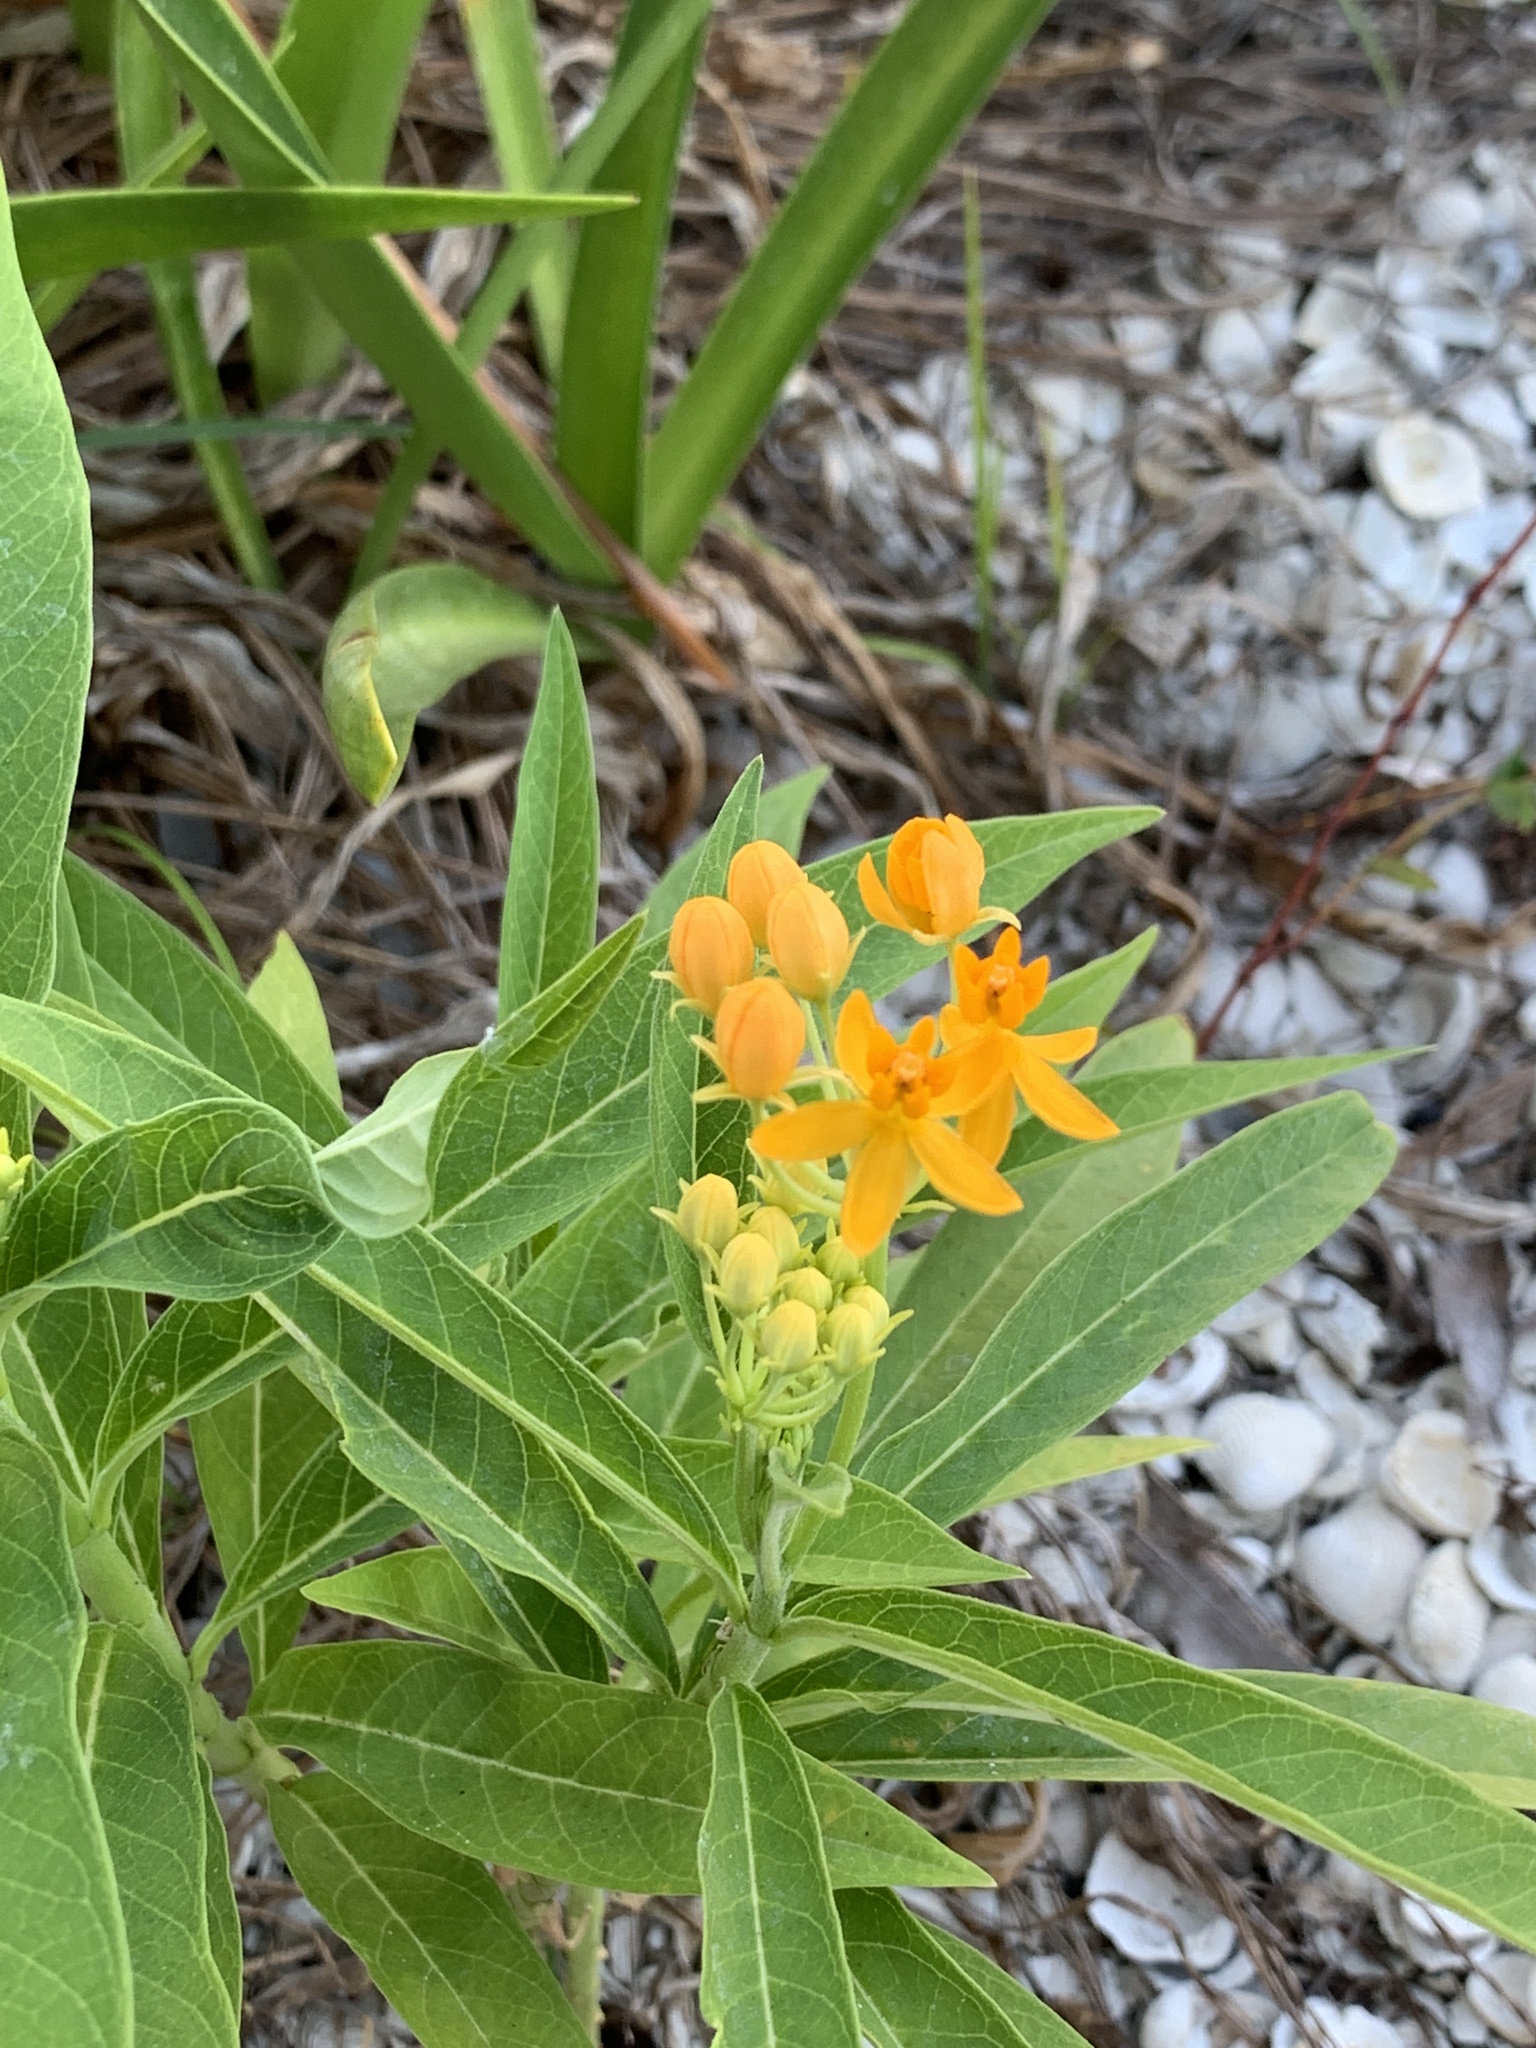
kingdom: Plantae
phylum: Tracheophyta
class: Magnoliopsida
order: Gentianales
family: Apocynaceae
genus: Asclepias
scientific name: Asclepias curassavica
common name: Bloodflower
